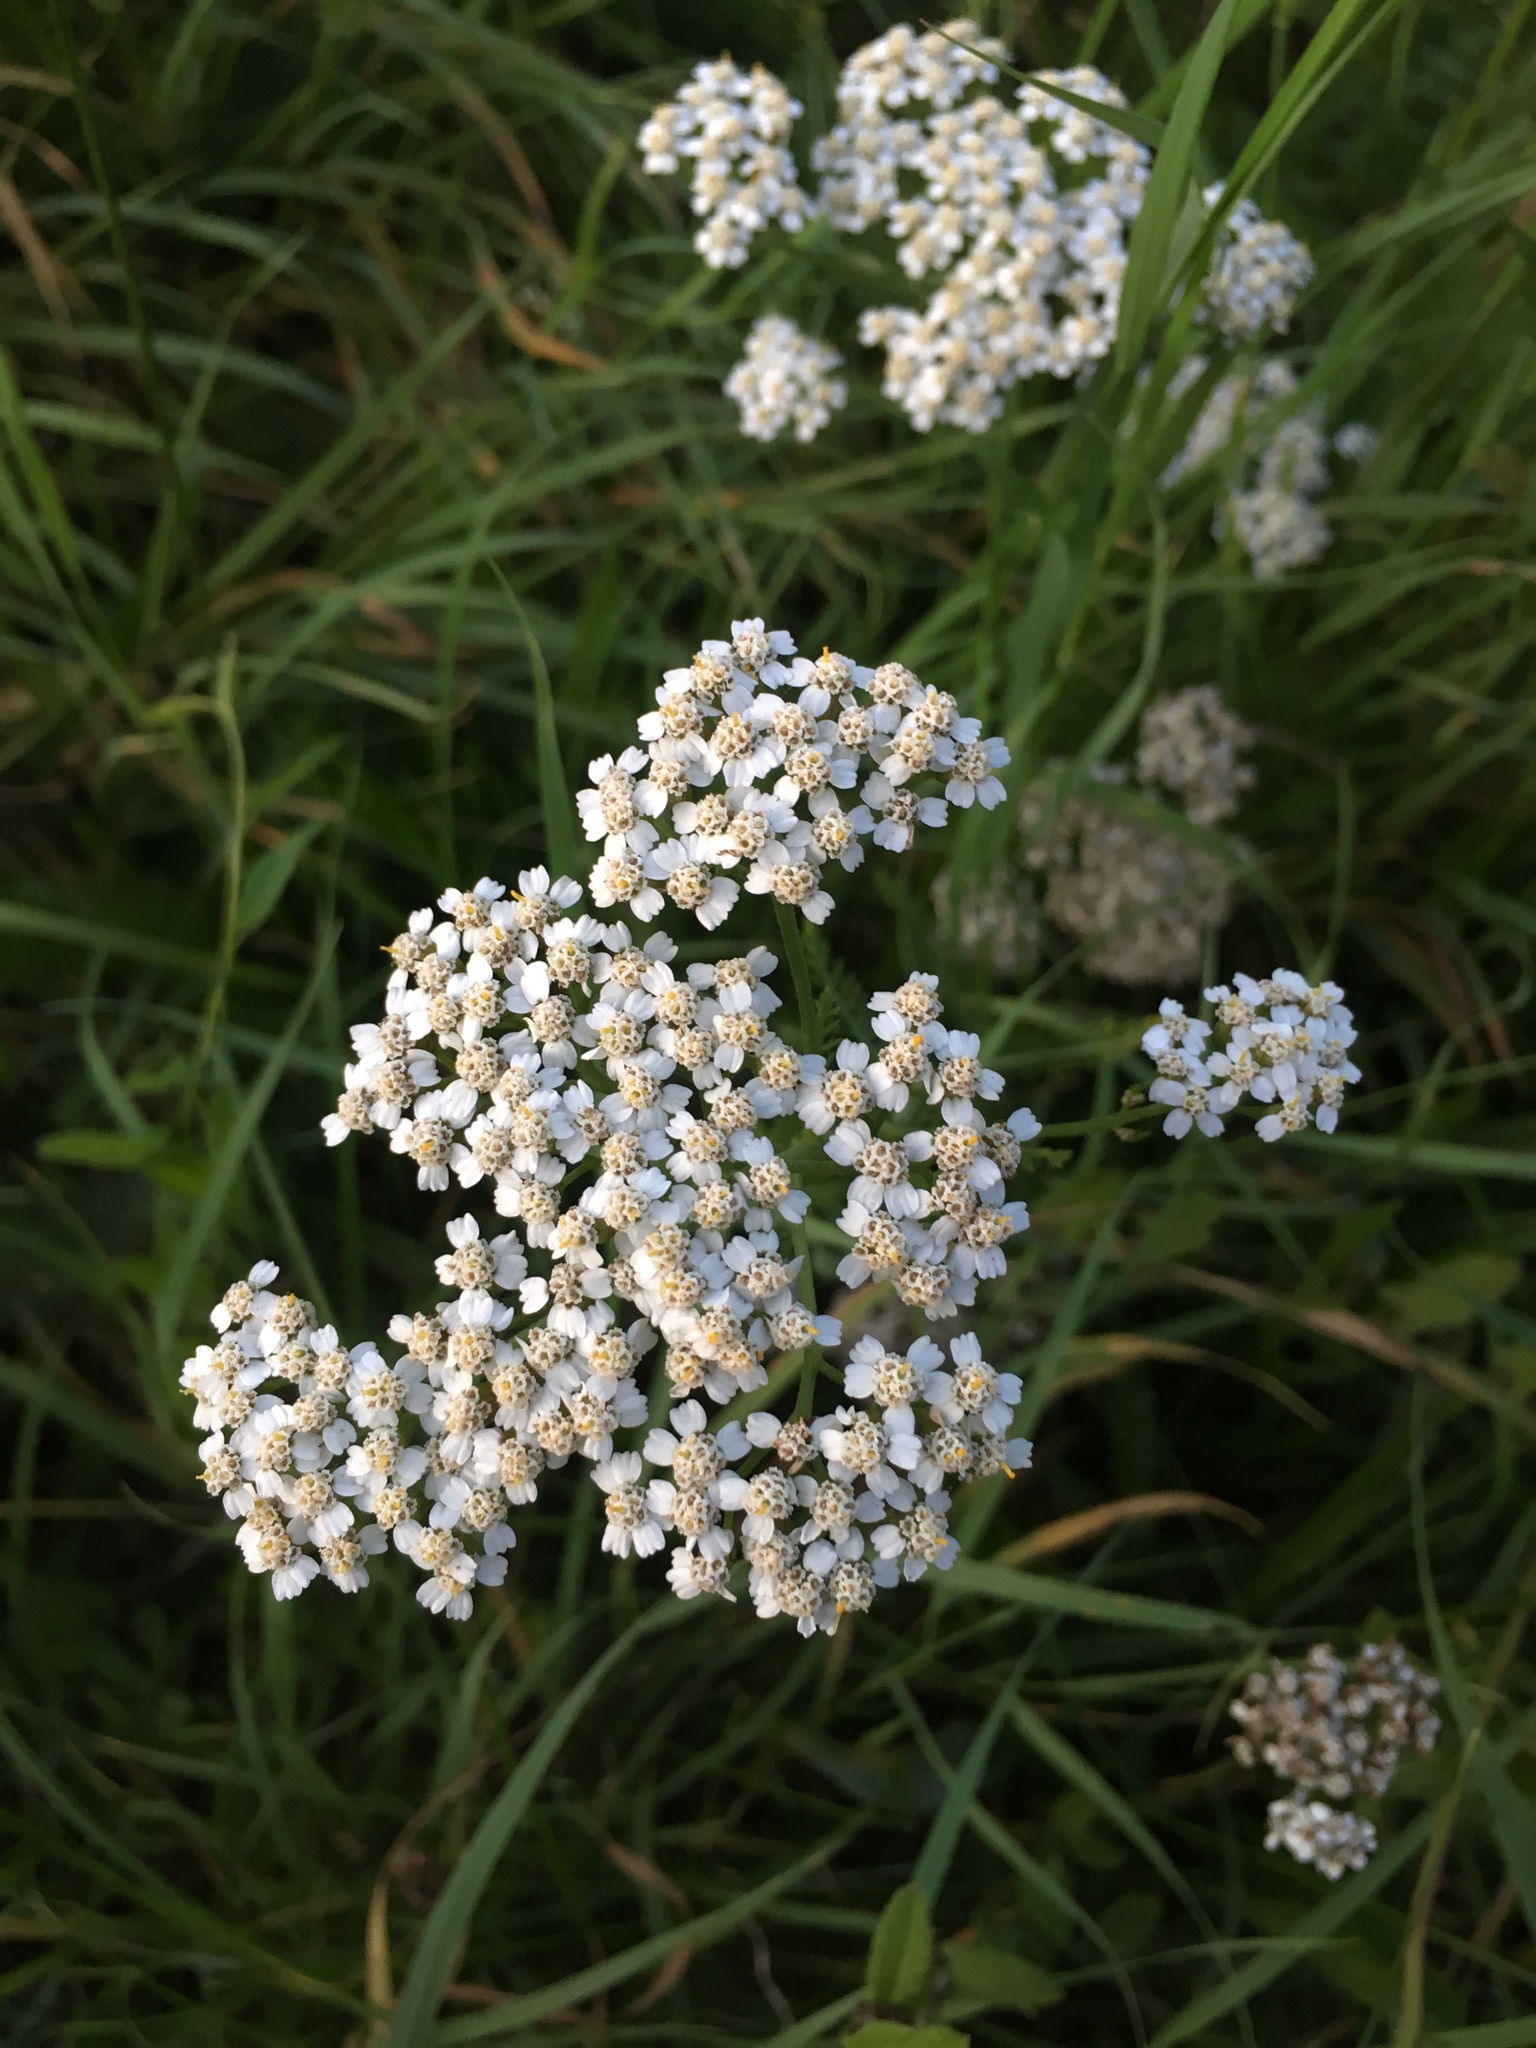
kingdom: Plantae
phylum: Tracheophyta
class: Magnoliopsida
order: Asterales
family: Asteraceae
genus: Achillea
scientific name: Achillea millefolium
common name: Yarrow
